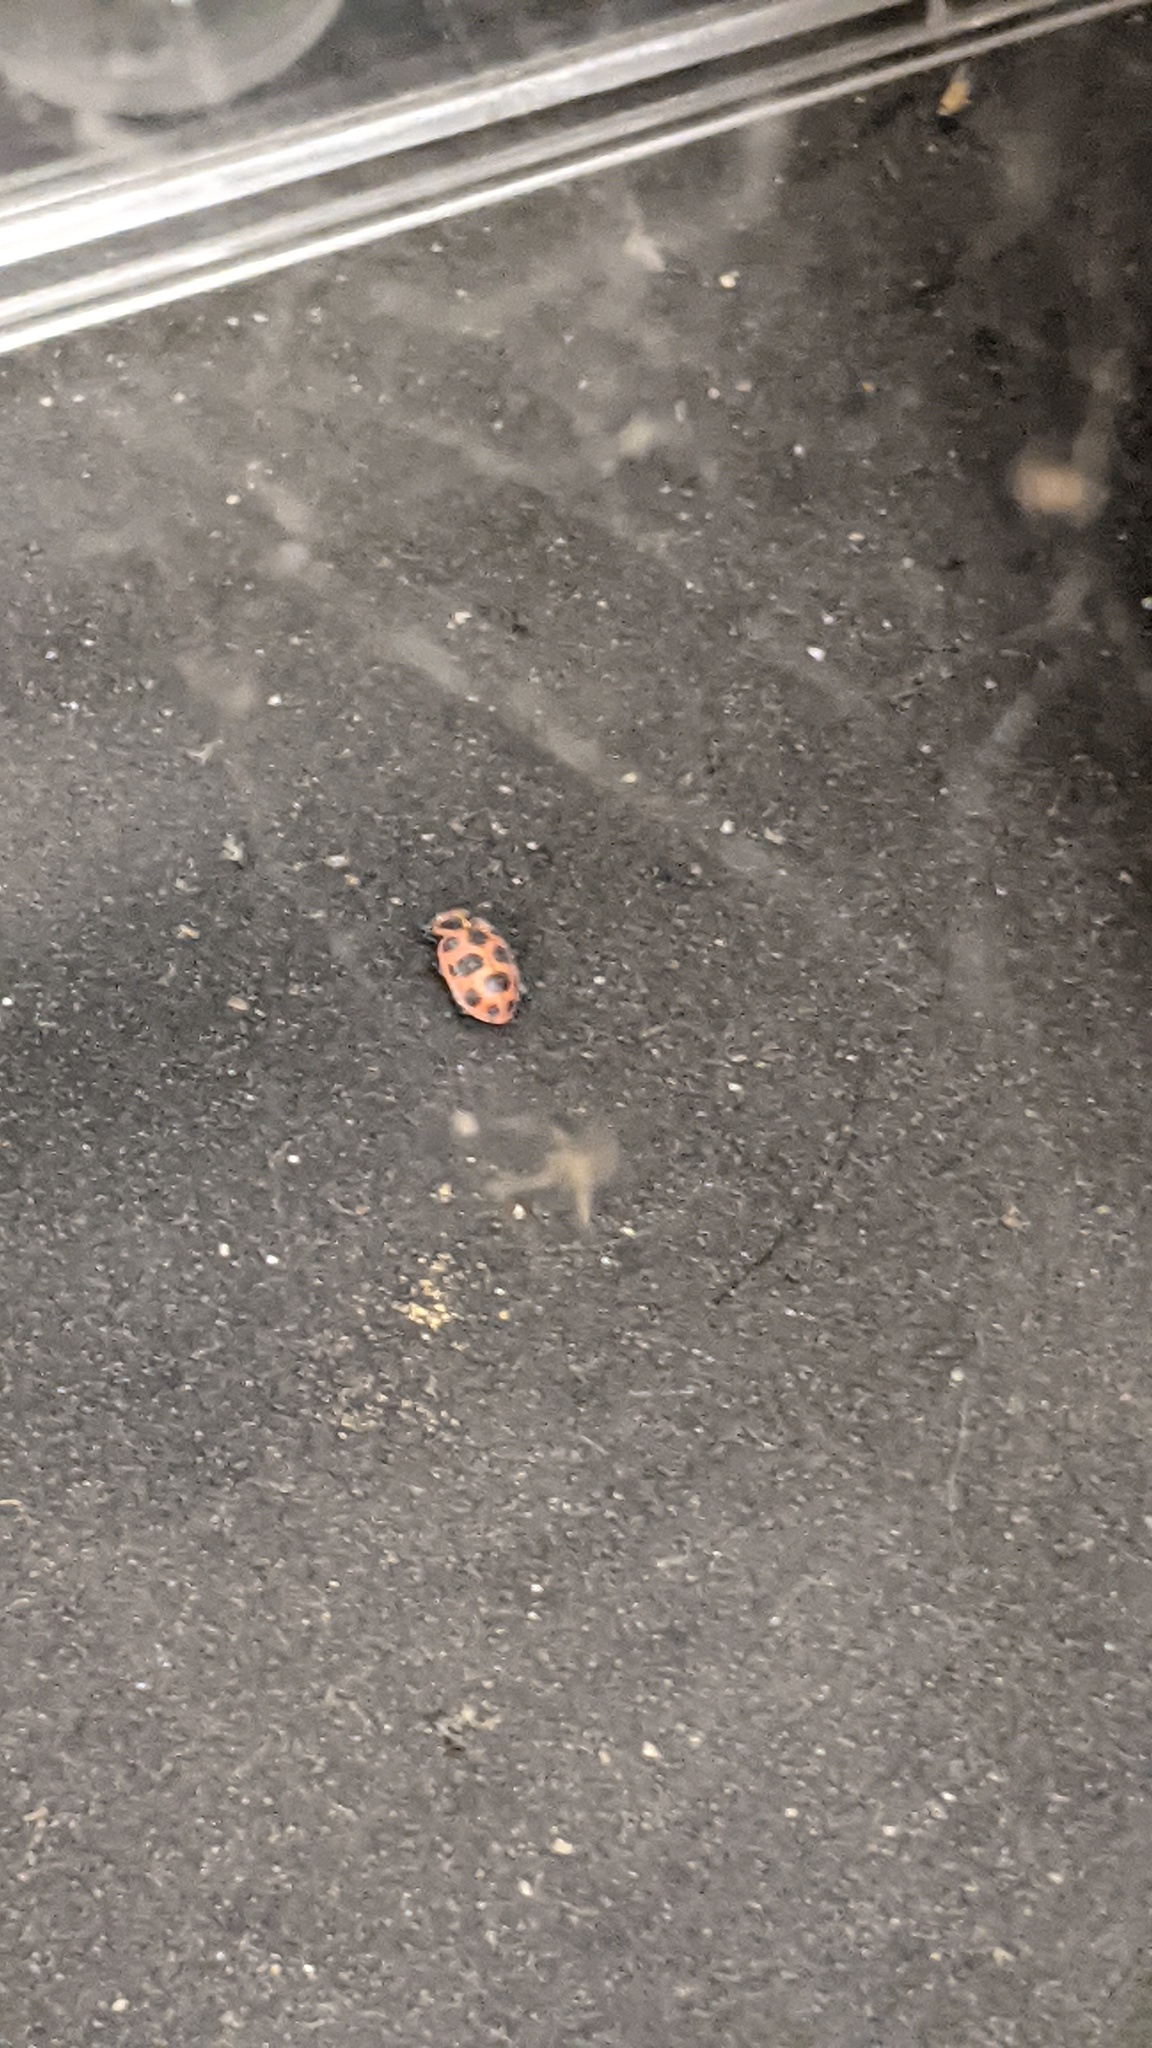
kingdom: Animalia
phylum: Arthropoda
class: Insecta
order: Coleoptera
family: Coccinellidae
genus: Coleomegilla
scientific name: Coleomegilla maculata
